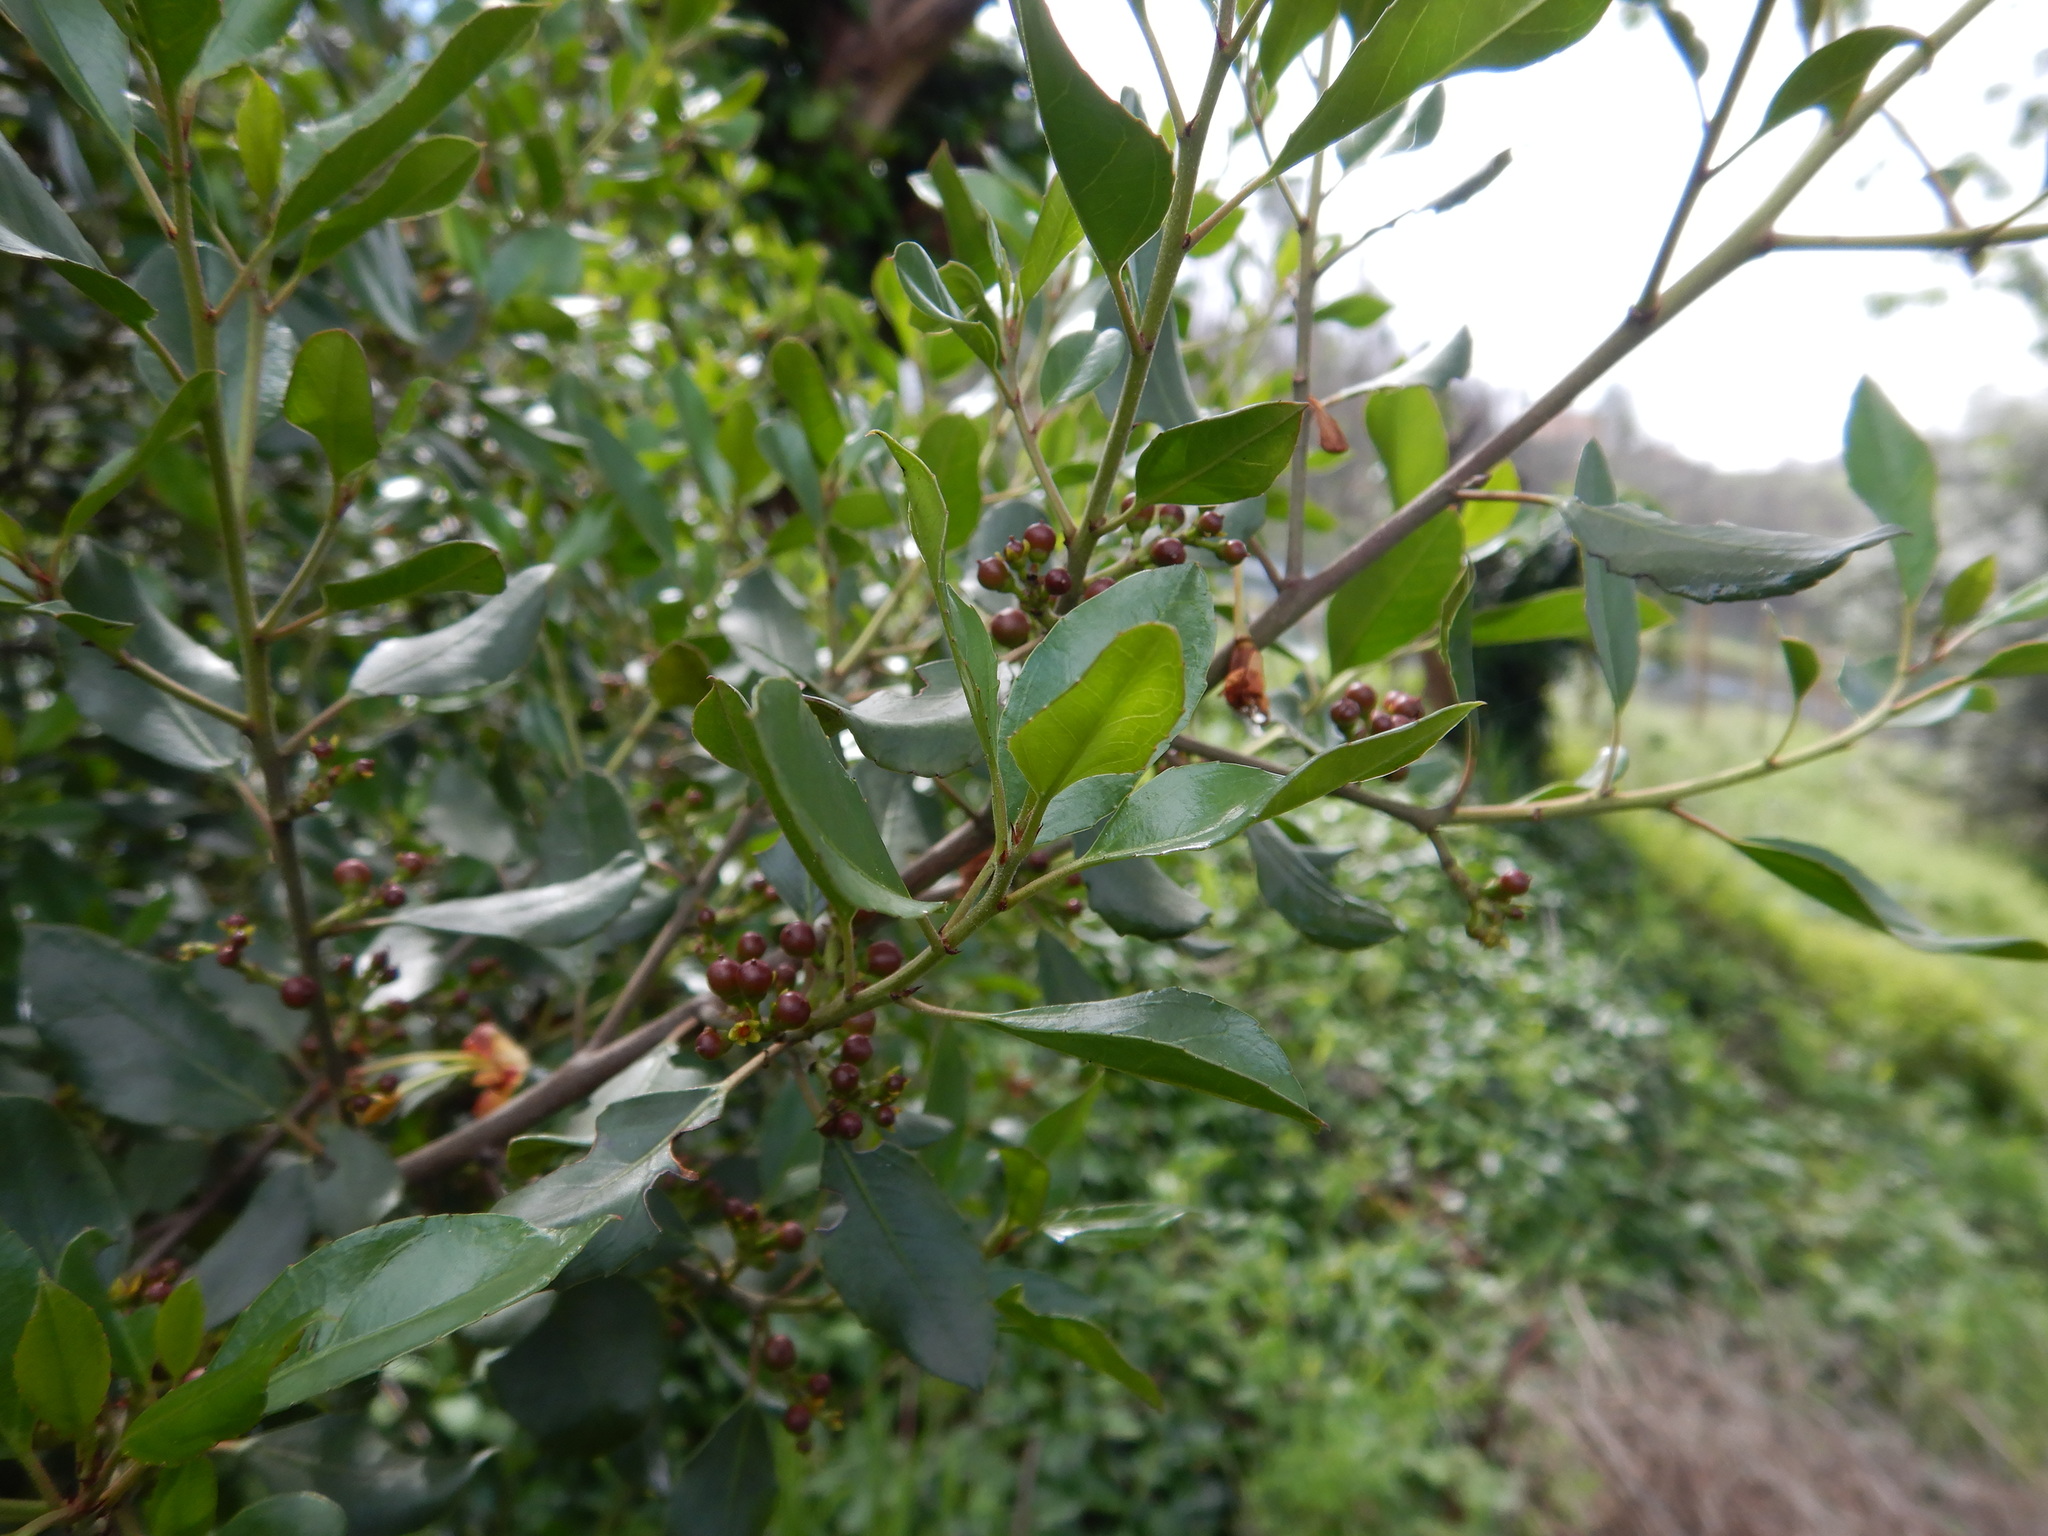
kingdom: Plantae
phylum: Tracheophyta
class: Magnoliopsida
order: Rosales
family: Rhamnaceae
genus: Rhamnus
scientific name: Rhamnus alaternus
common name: Mediterranean buckthorn
